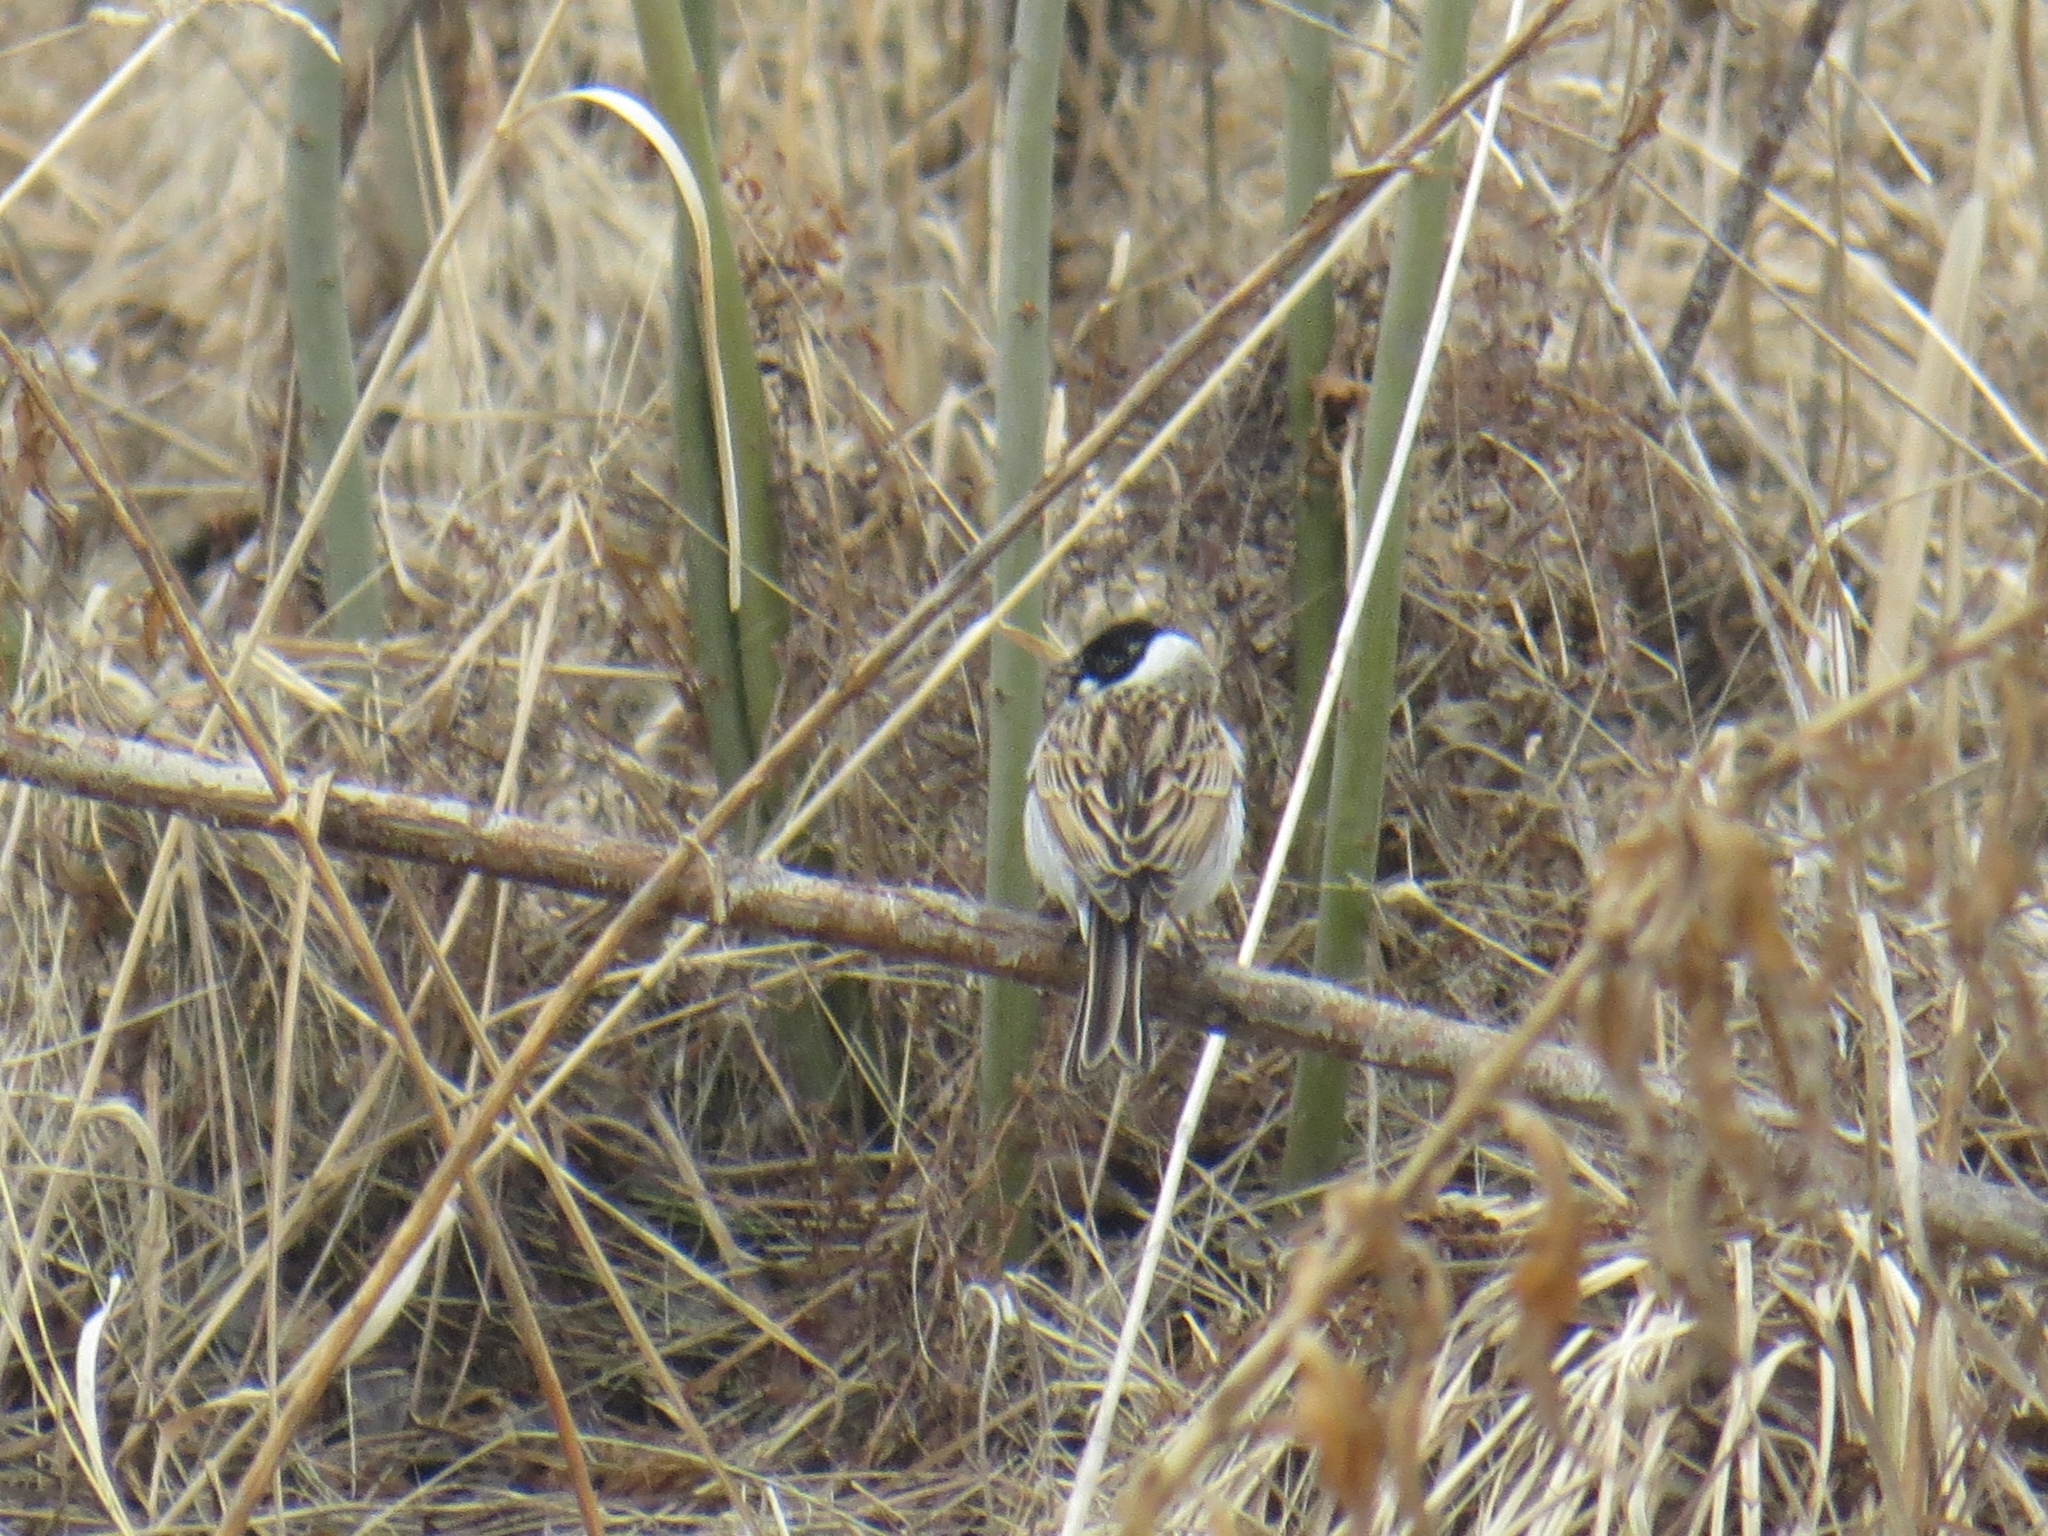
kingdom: Animalia
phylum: Chordata
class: Aves
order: Passeriformes
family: Emberizidae
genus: Emberiza
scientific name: Emberiza schoeniclus
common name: Reed bunting
